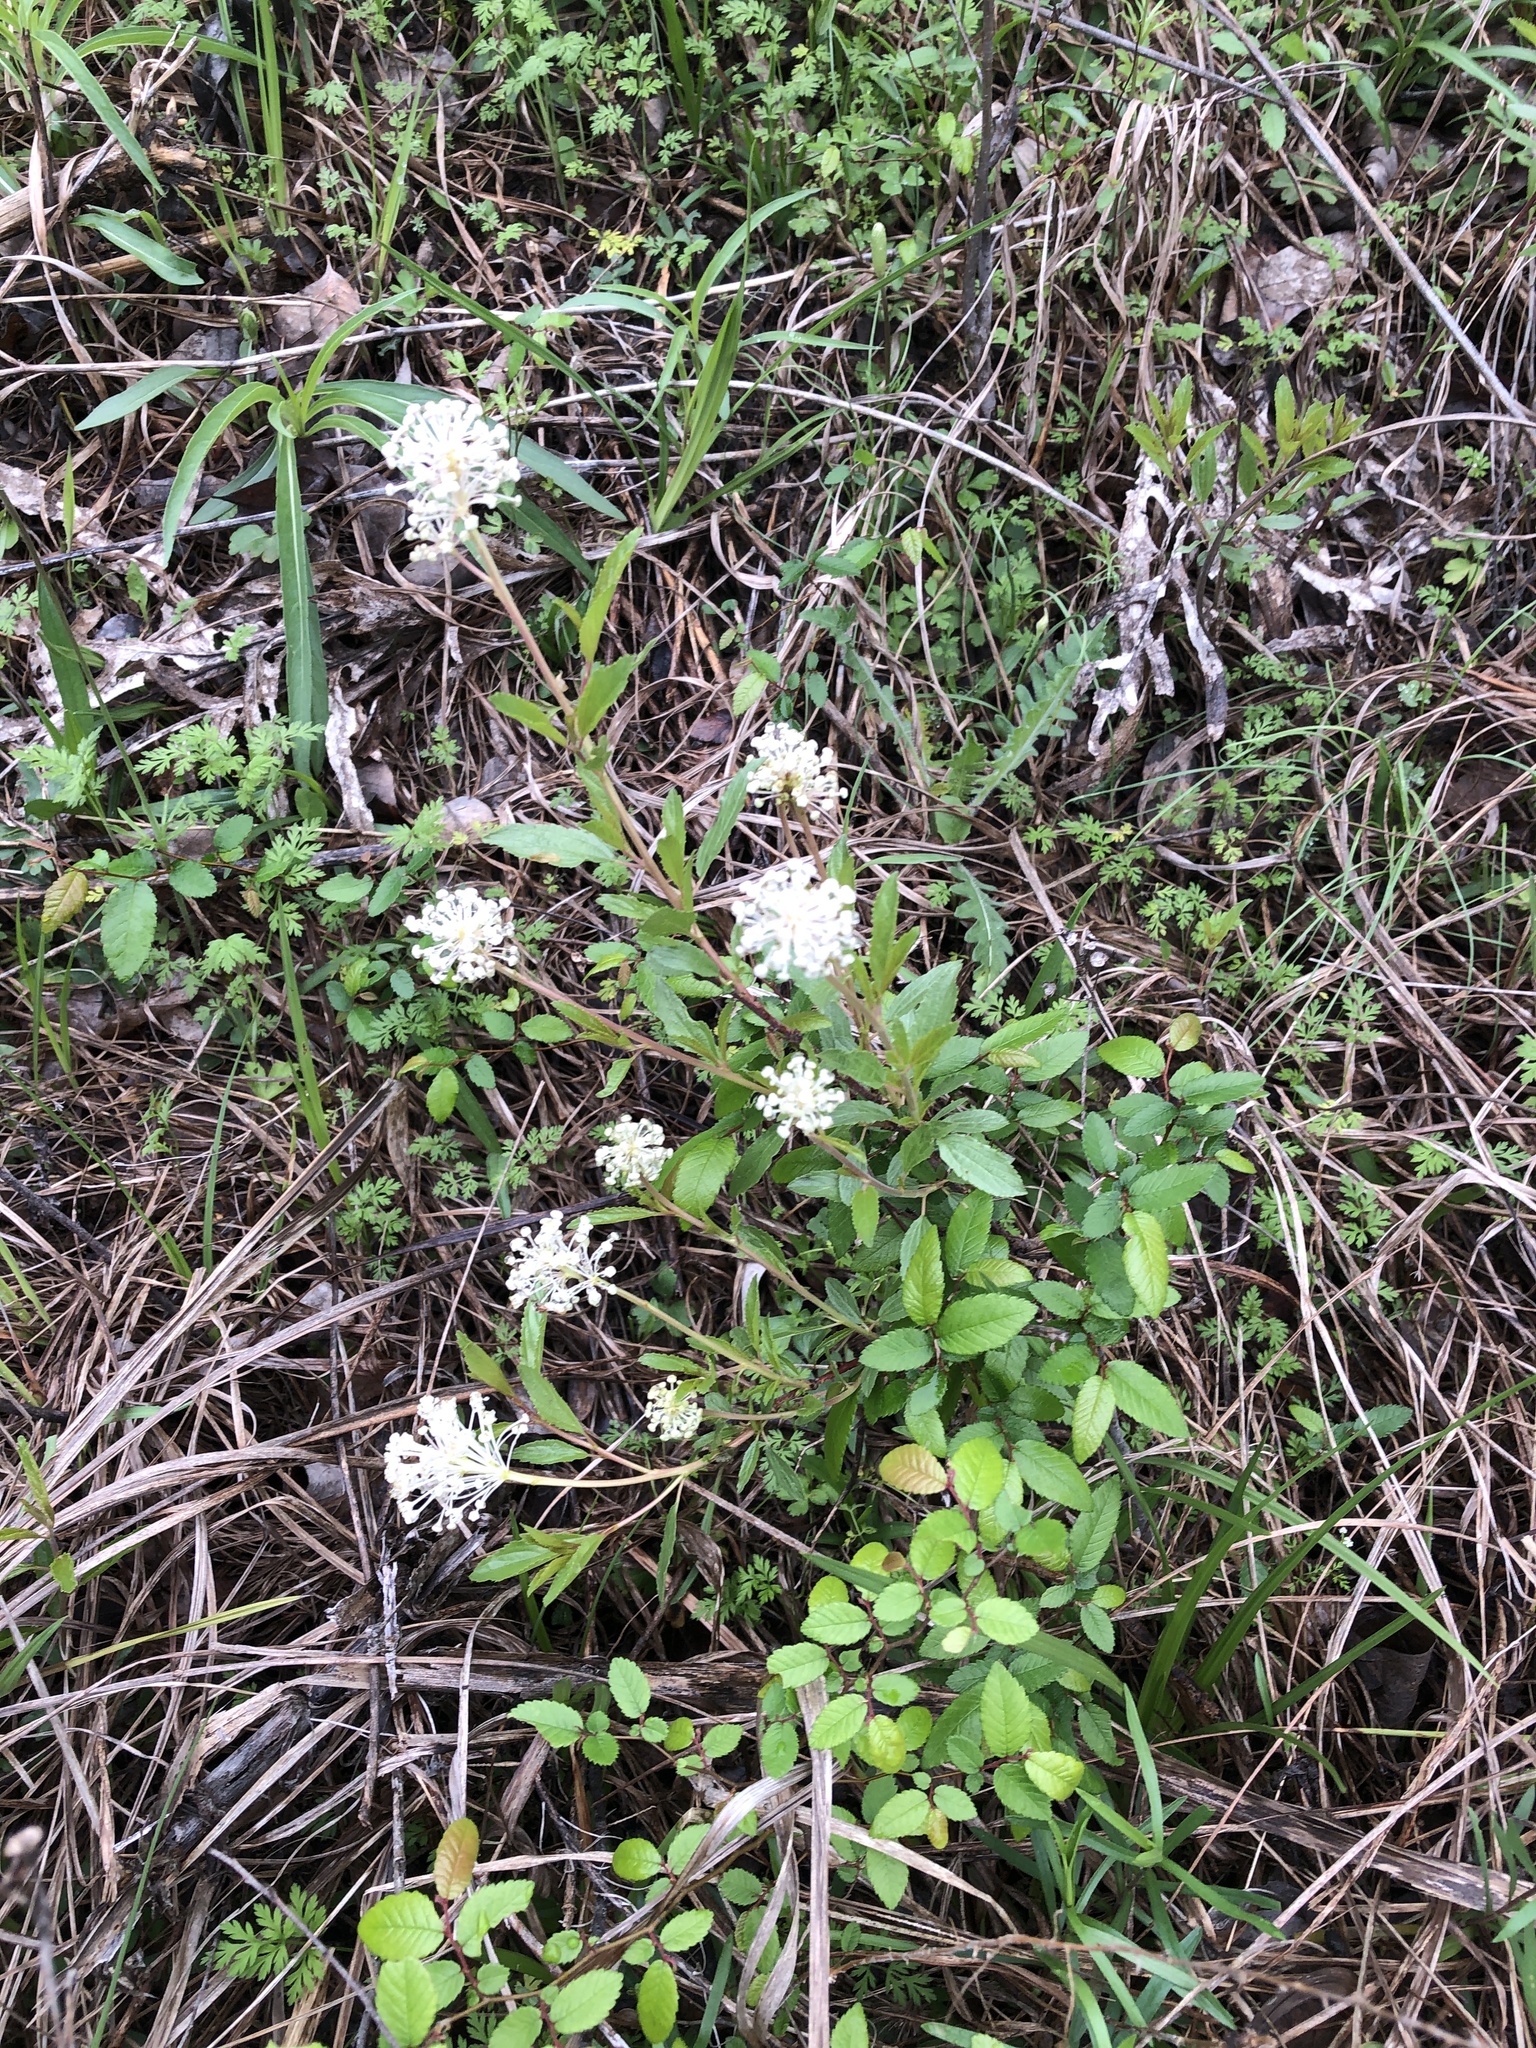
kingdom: Plantae
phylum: Tracheophyta
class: Magnoliopsida
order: Rosales
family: Rhamnaceae
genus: Ceanothus
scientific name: Ceanothus herbaceus
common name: Inland ceanothus
